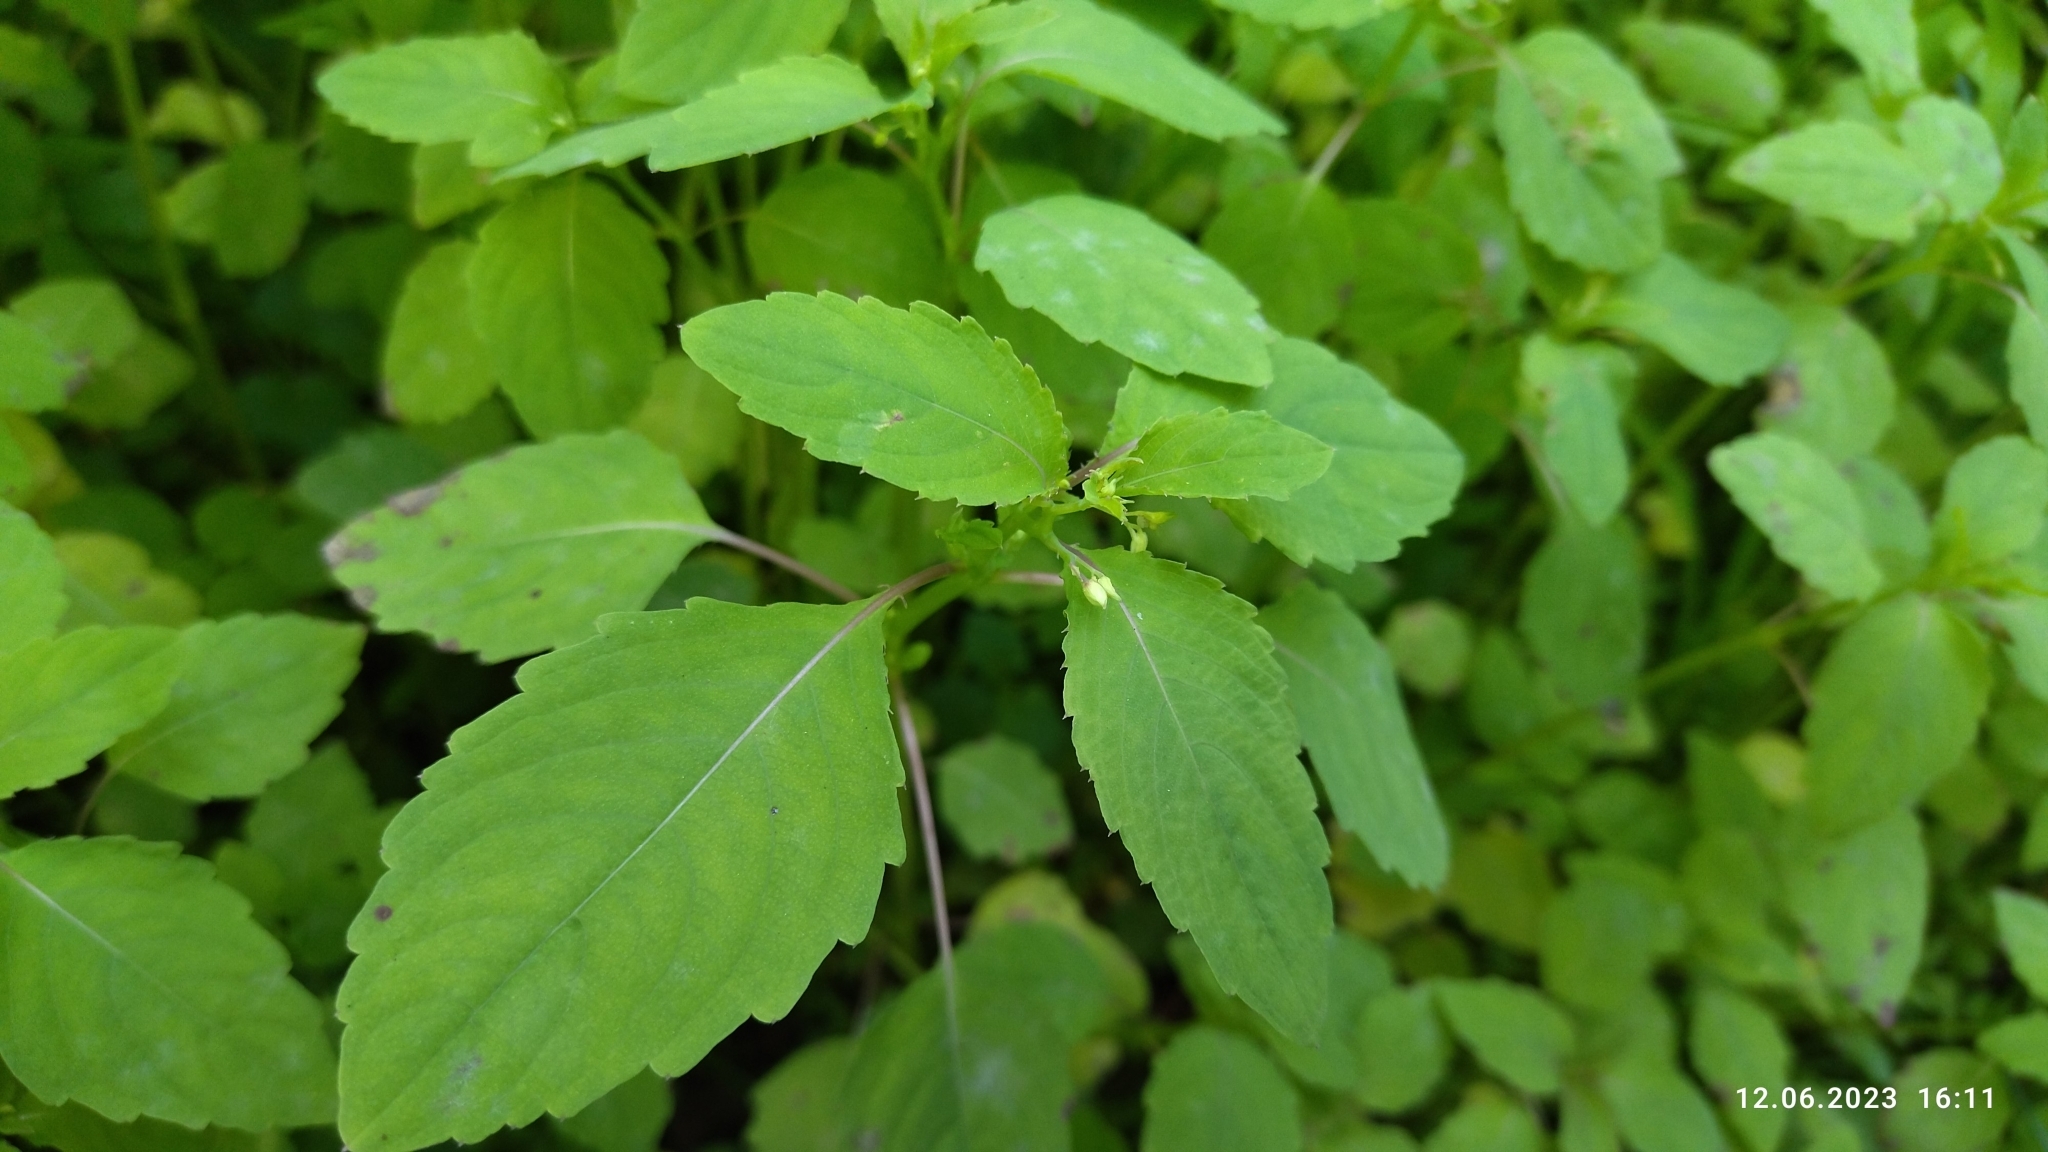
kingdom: Plantae
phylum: Tracheophyta
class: Magnoliopsida
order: Ericales
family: Balsaminaceae
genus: Impatiens
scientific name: Impatiens noli-tangere
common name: Touch-me-not balsam
